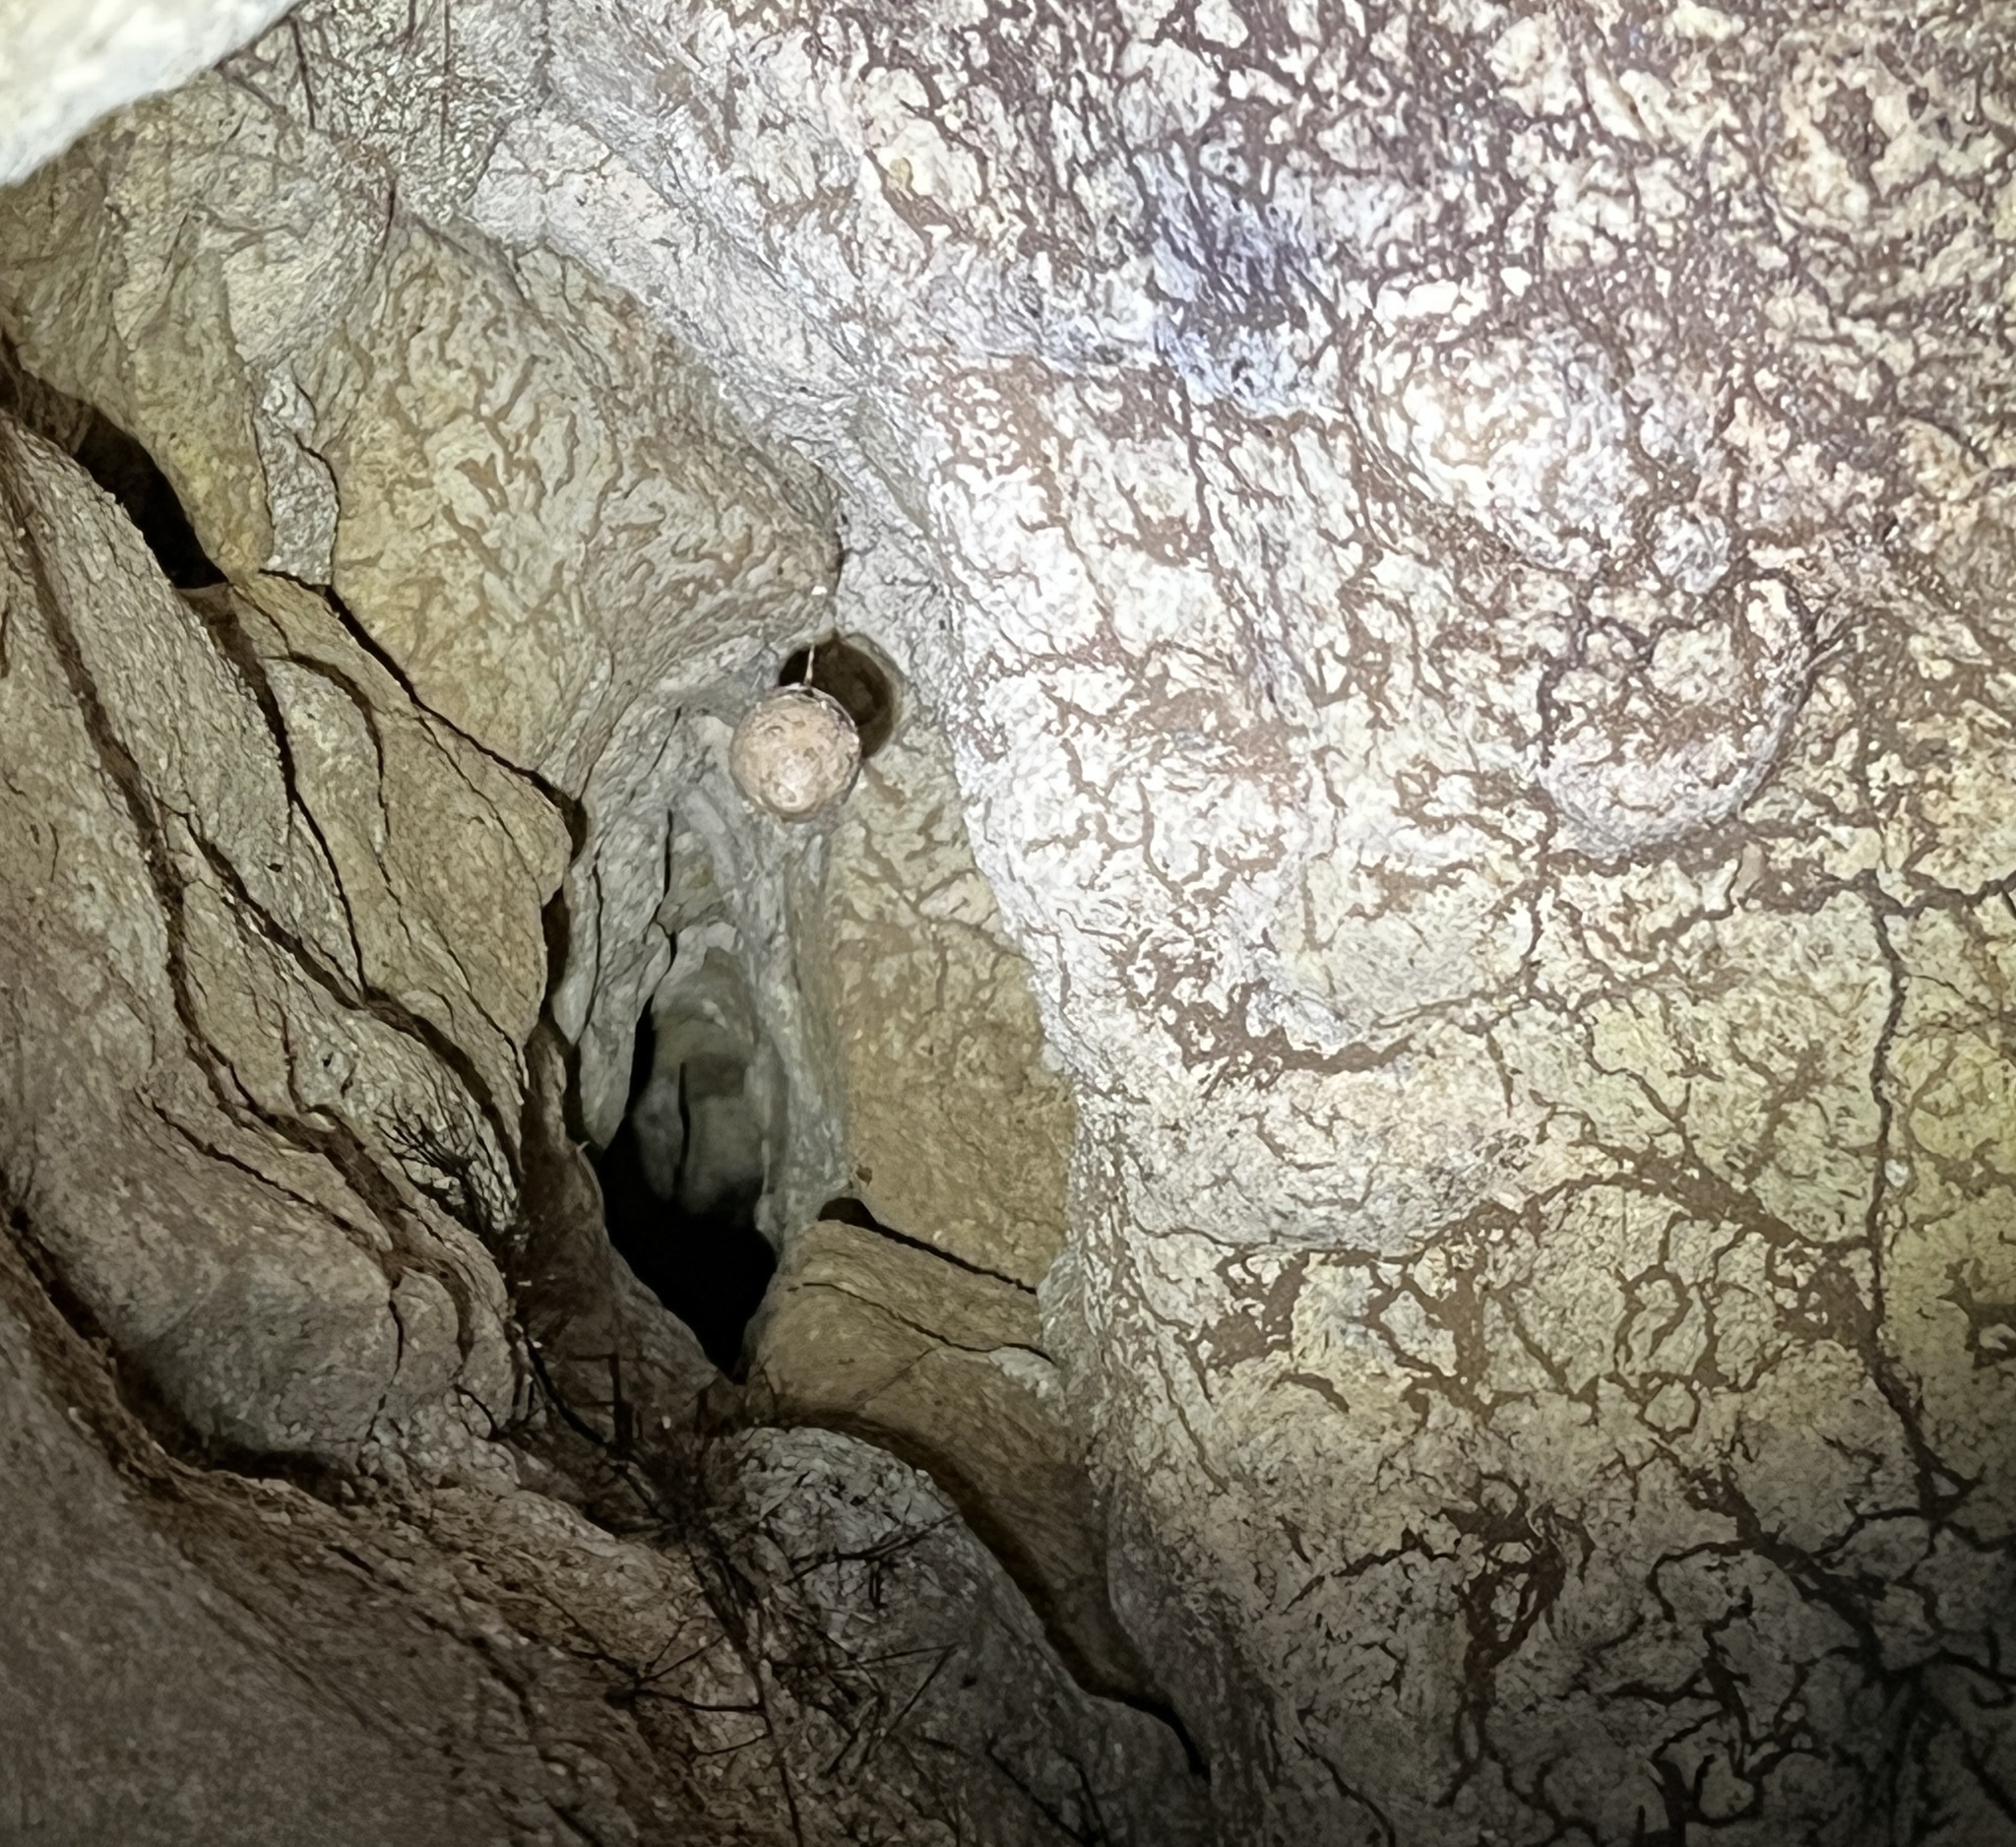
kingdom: Animalia
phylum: Arthropoda
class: Arachnida
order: Araneae
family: Gradungulidae
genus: Spelungula
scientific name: Spelungula cavernicola
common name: Nelson cave spider
